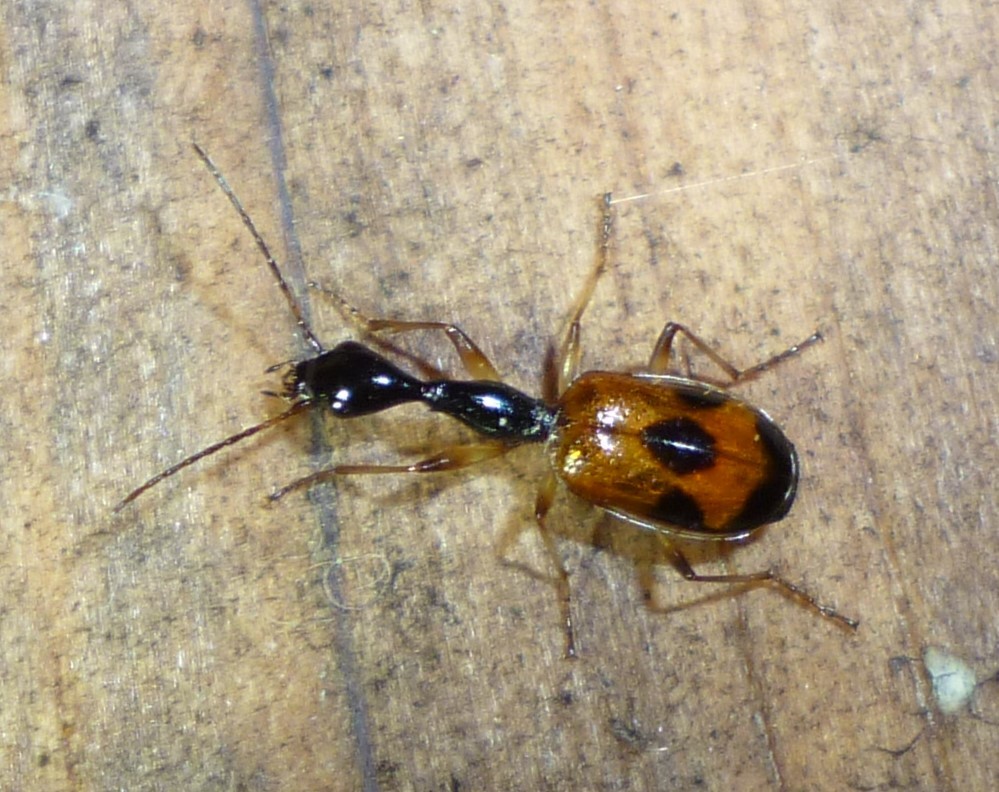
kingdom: Animalia
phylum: Arthropoda
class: Insecta
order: Coleoptera
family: Carabidae
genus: Colliuris
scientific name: Colliuris pensylvanica
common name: Long-necked ground beetle
